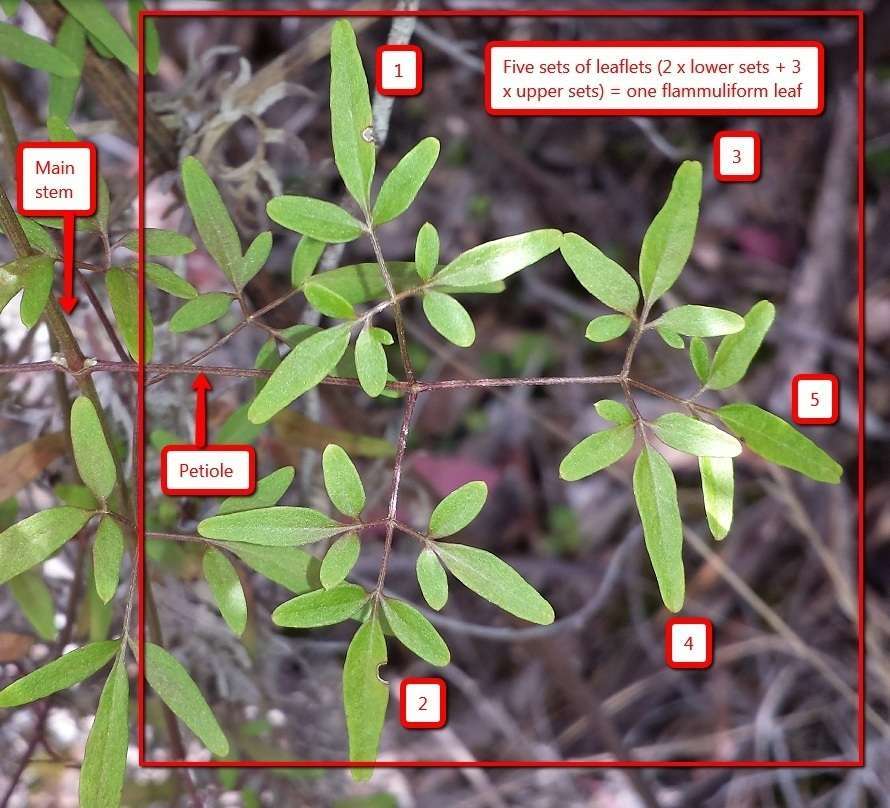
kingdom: Plantae
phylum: Tracheophyta
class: Magnoliopsida
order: Ranunculales
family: Ranunculaceae
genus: Clematis
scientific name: Clematis decipiens
